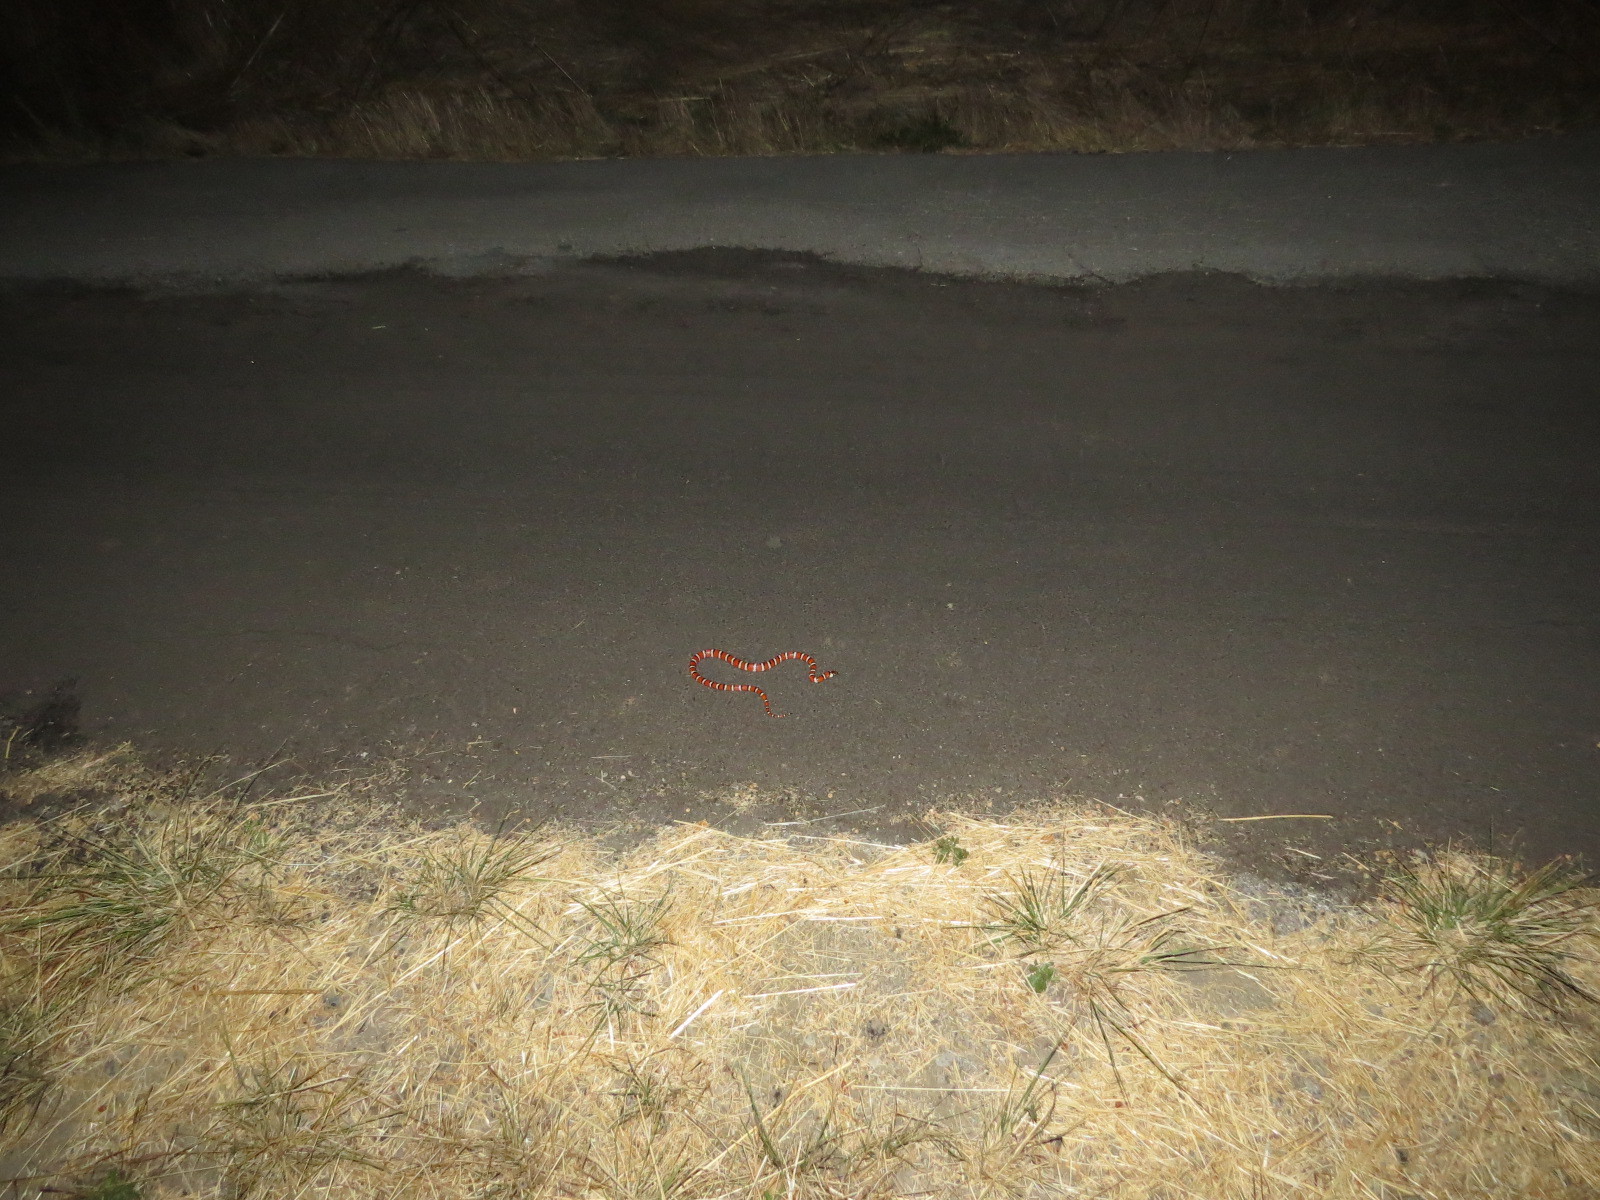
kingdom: Animalia
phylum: Chordata
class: Squamata
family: Colubridae
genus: Lampropeltis
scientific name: Lampropeltis zonata
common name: California mountain kingsnake
